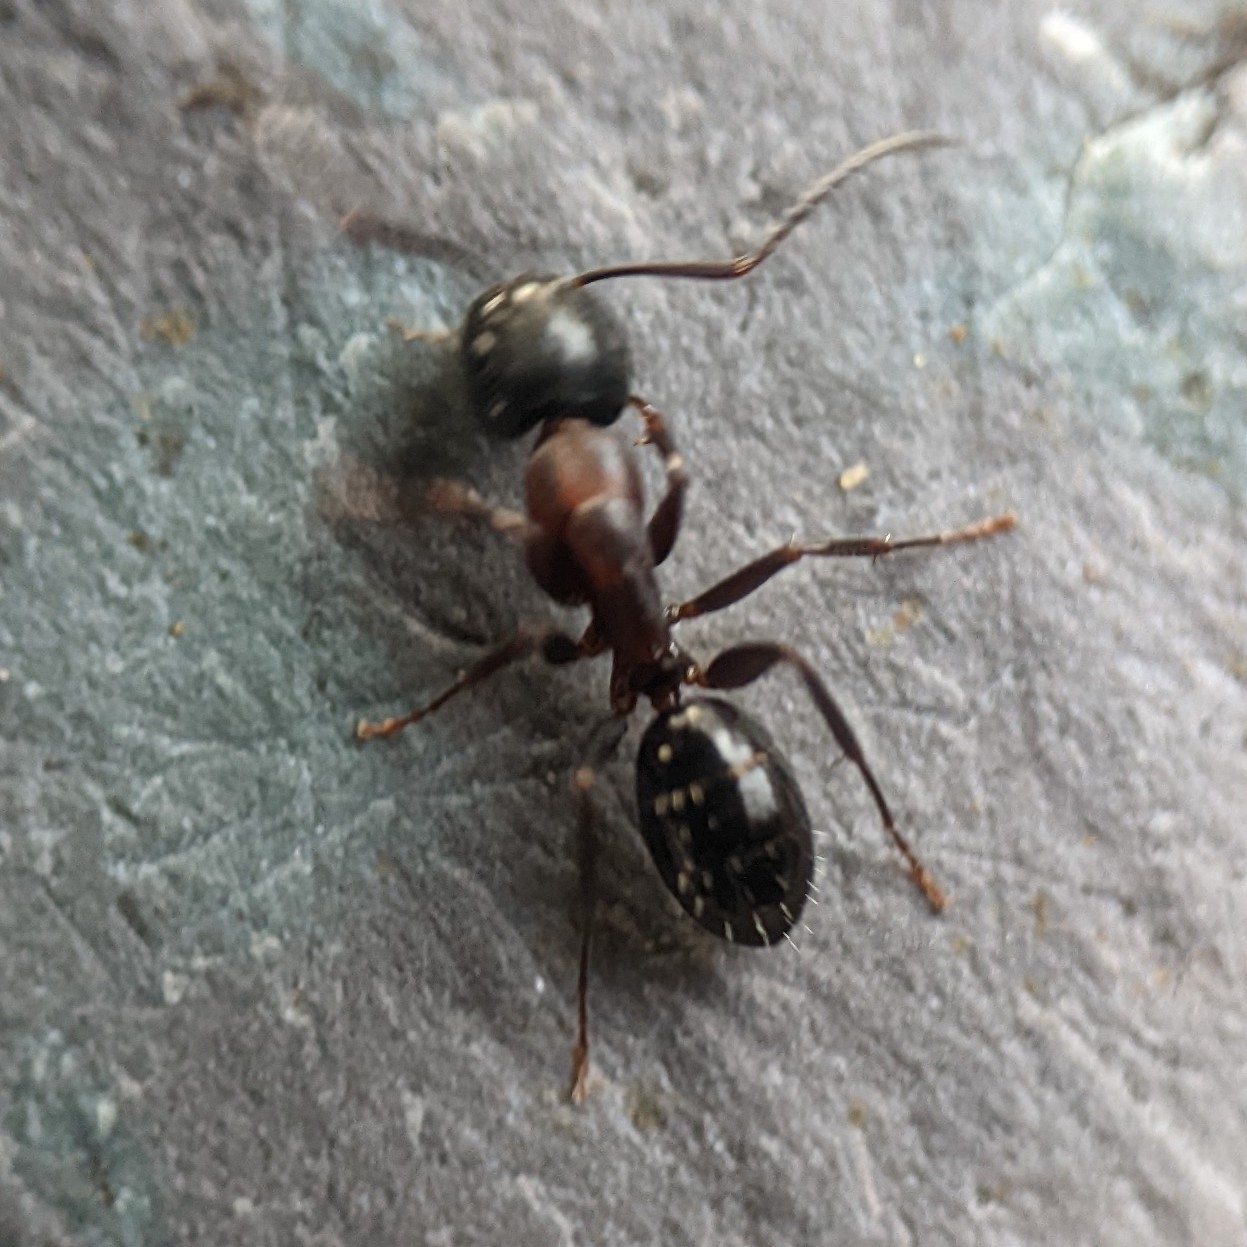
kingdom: Animalia
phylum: Arthropoda
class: Insecta
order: Hymenoptera
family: Formicidae
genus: Camponotus
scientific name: Camponotus nearcticus
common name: Smaller carpenter ant
